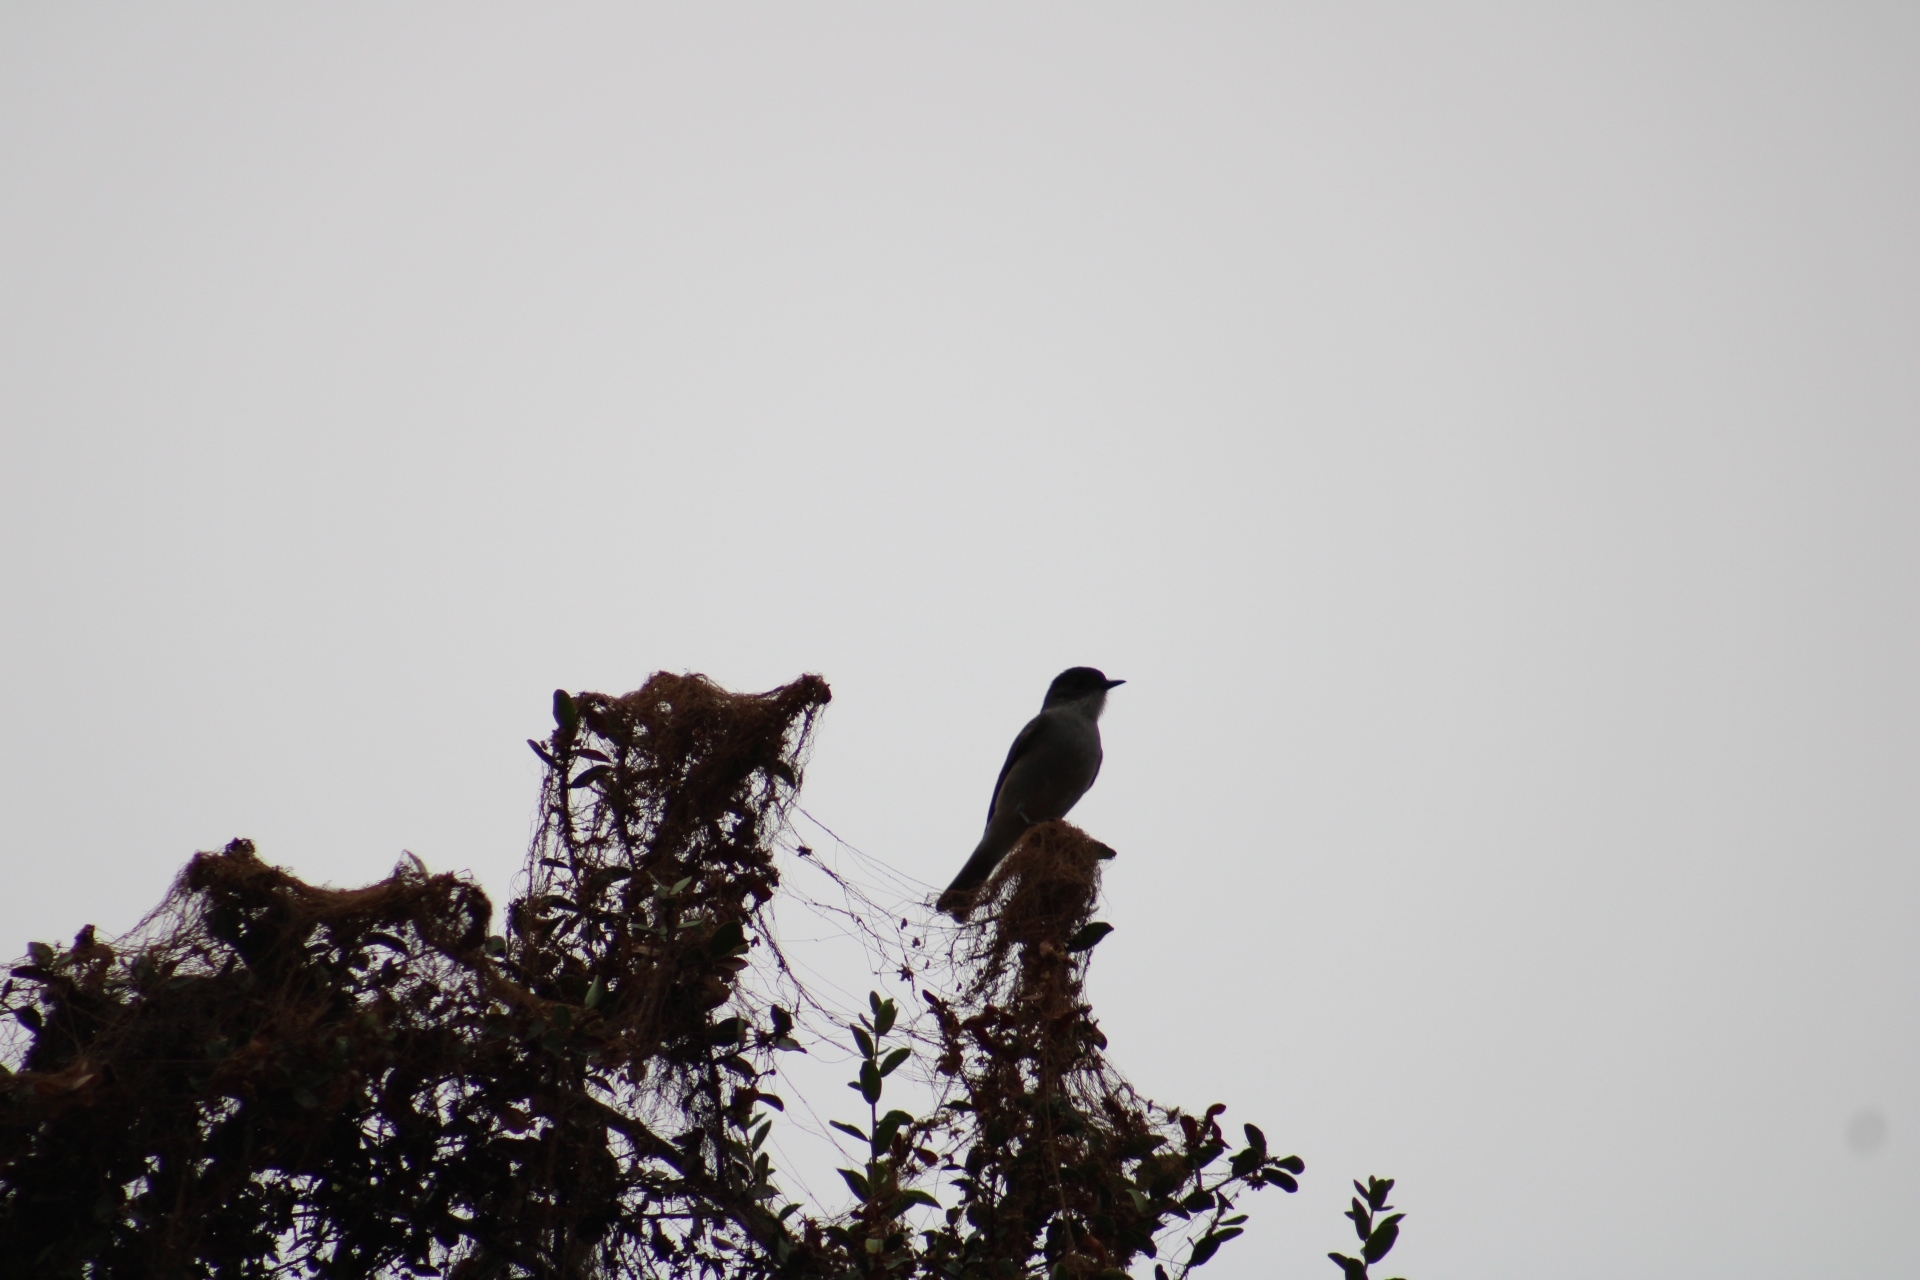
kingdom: Animalia
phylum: Chordata
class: Aves
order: Passeriformes
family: Tyrannidae
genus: Xolmis
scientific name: Xolmis pyrope
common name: Fire-eyed diucon
